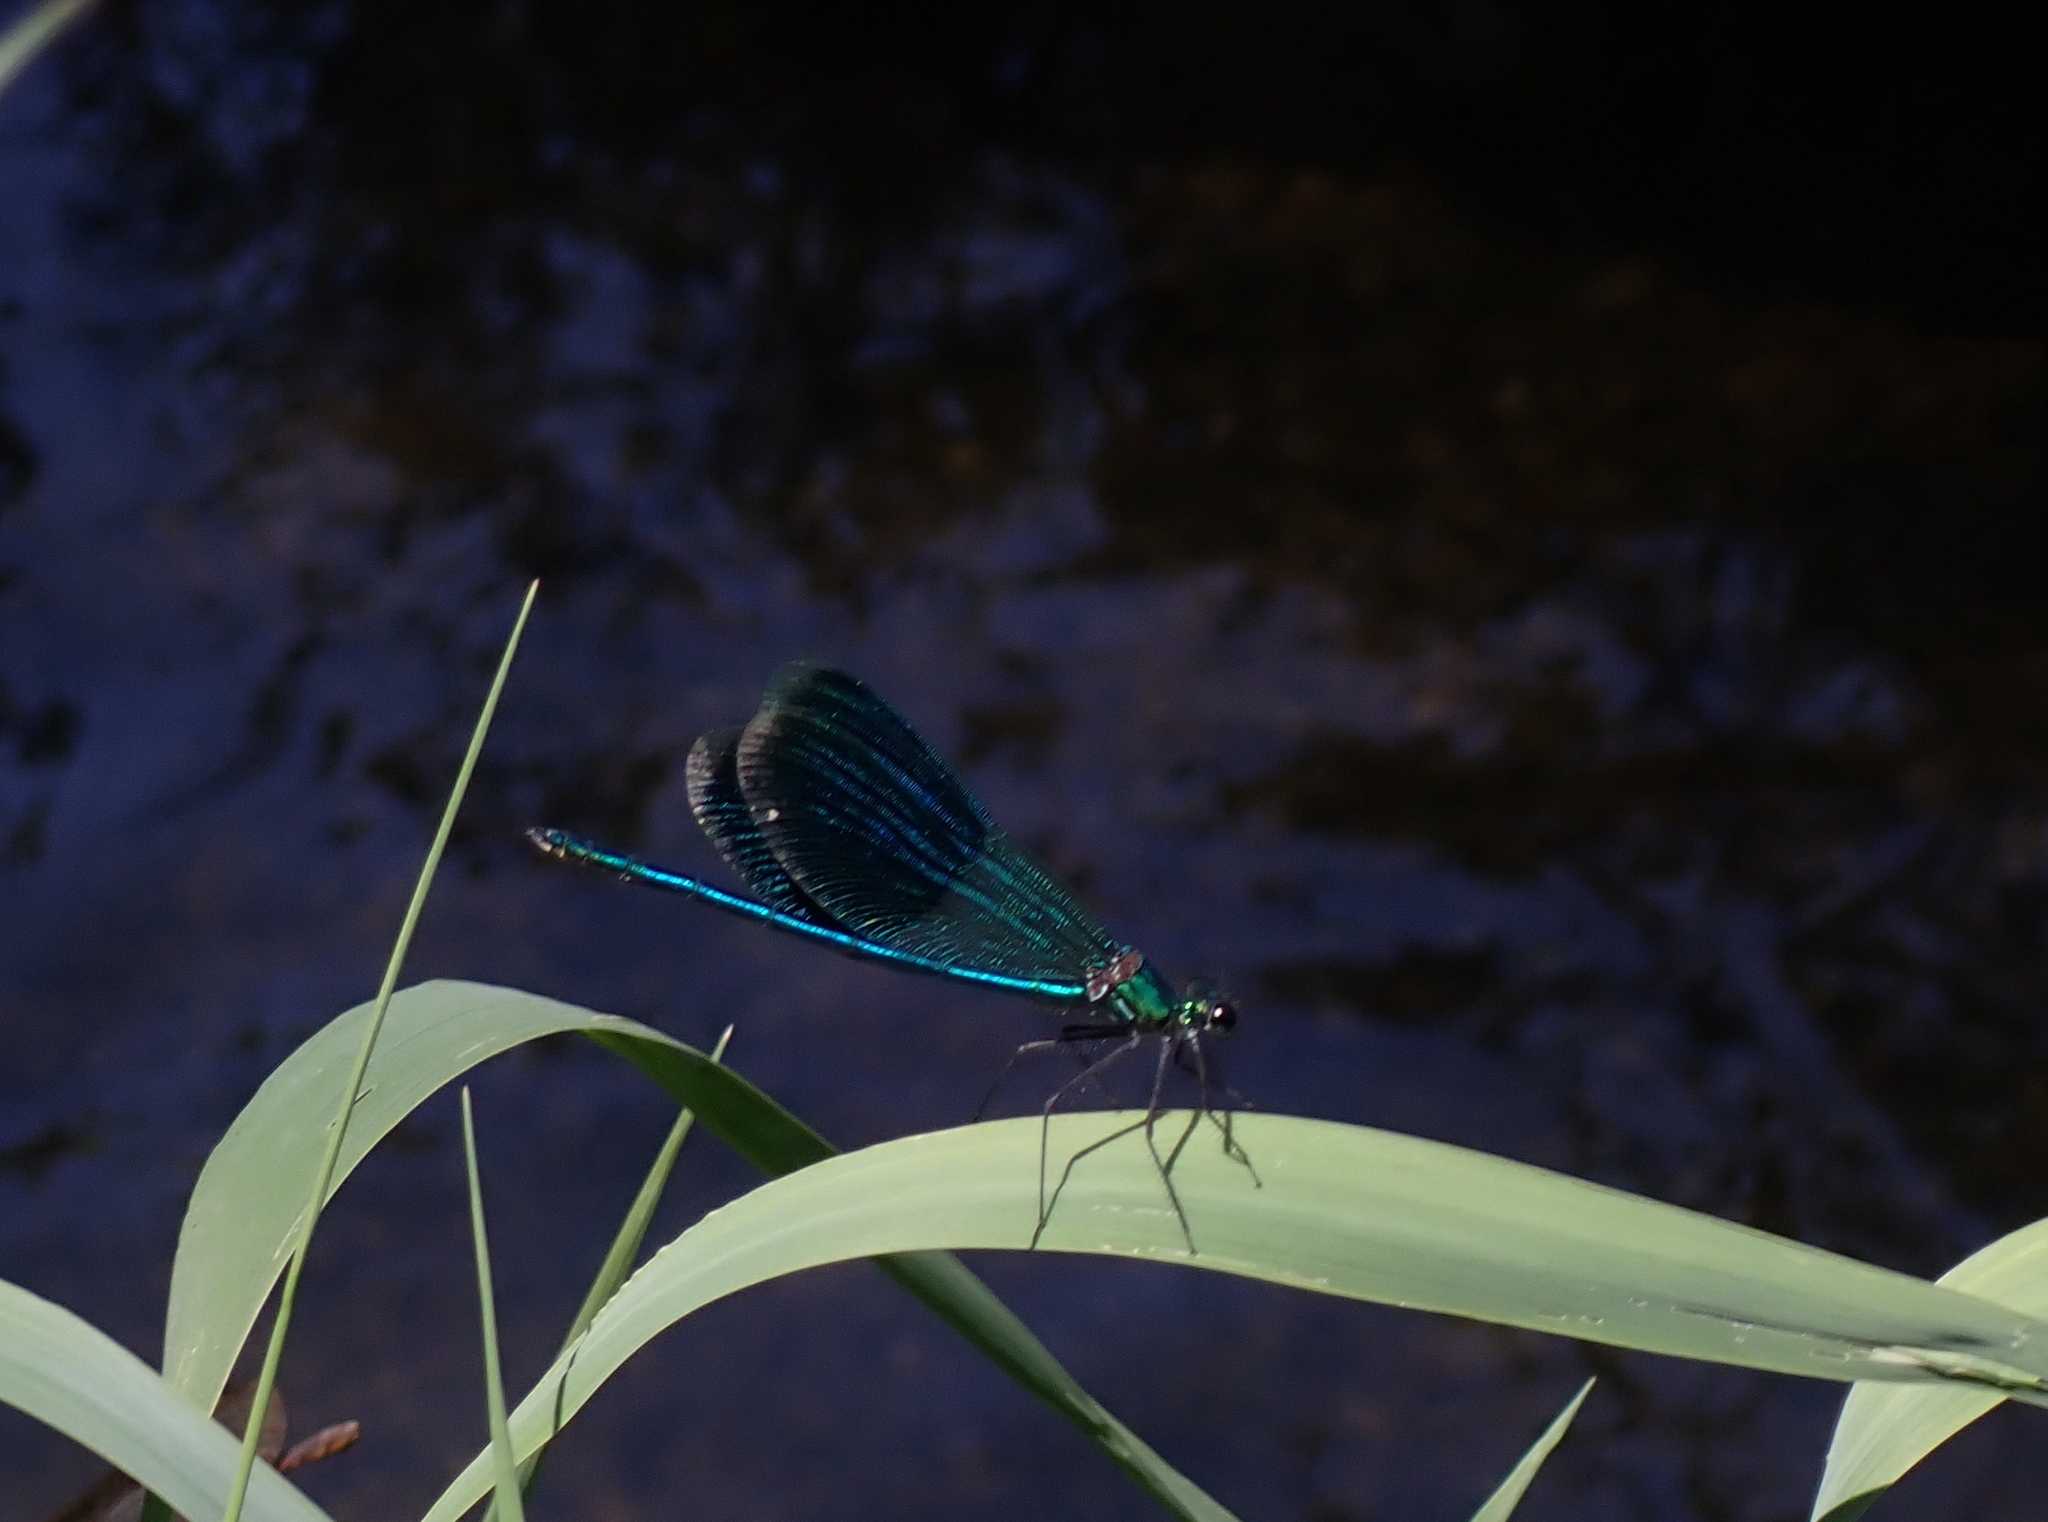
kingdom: Animalia
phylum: Arthropoda
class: Insecta
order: Odonata
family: Calopterygidae
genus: Calopteryx
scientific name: Calopteryx splendens
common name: Banded demoiselle
